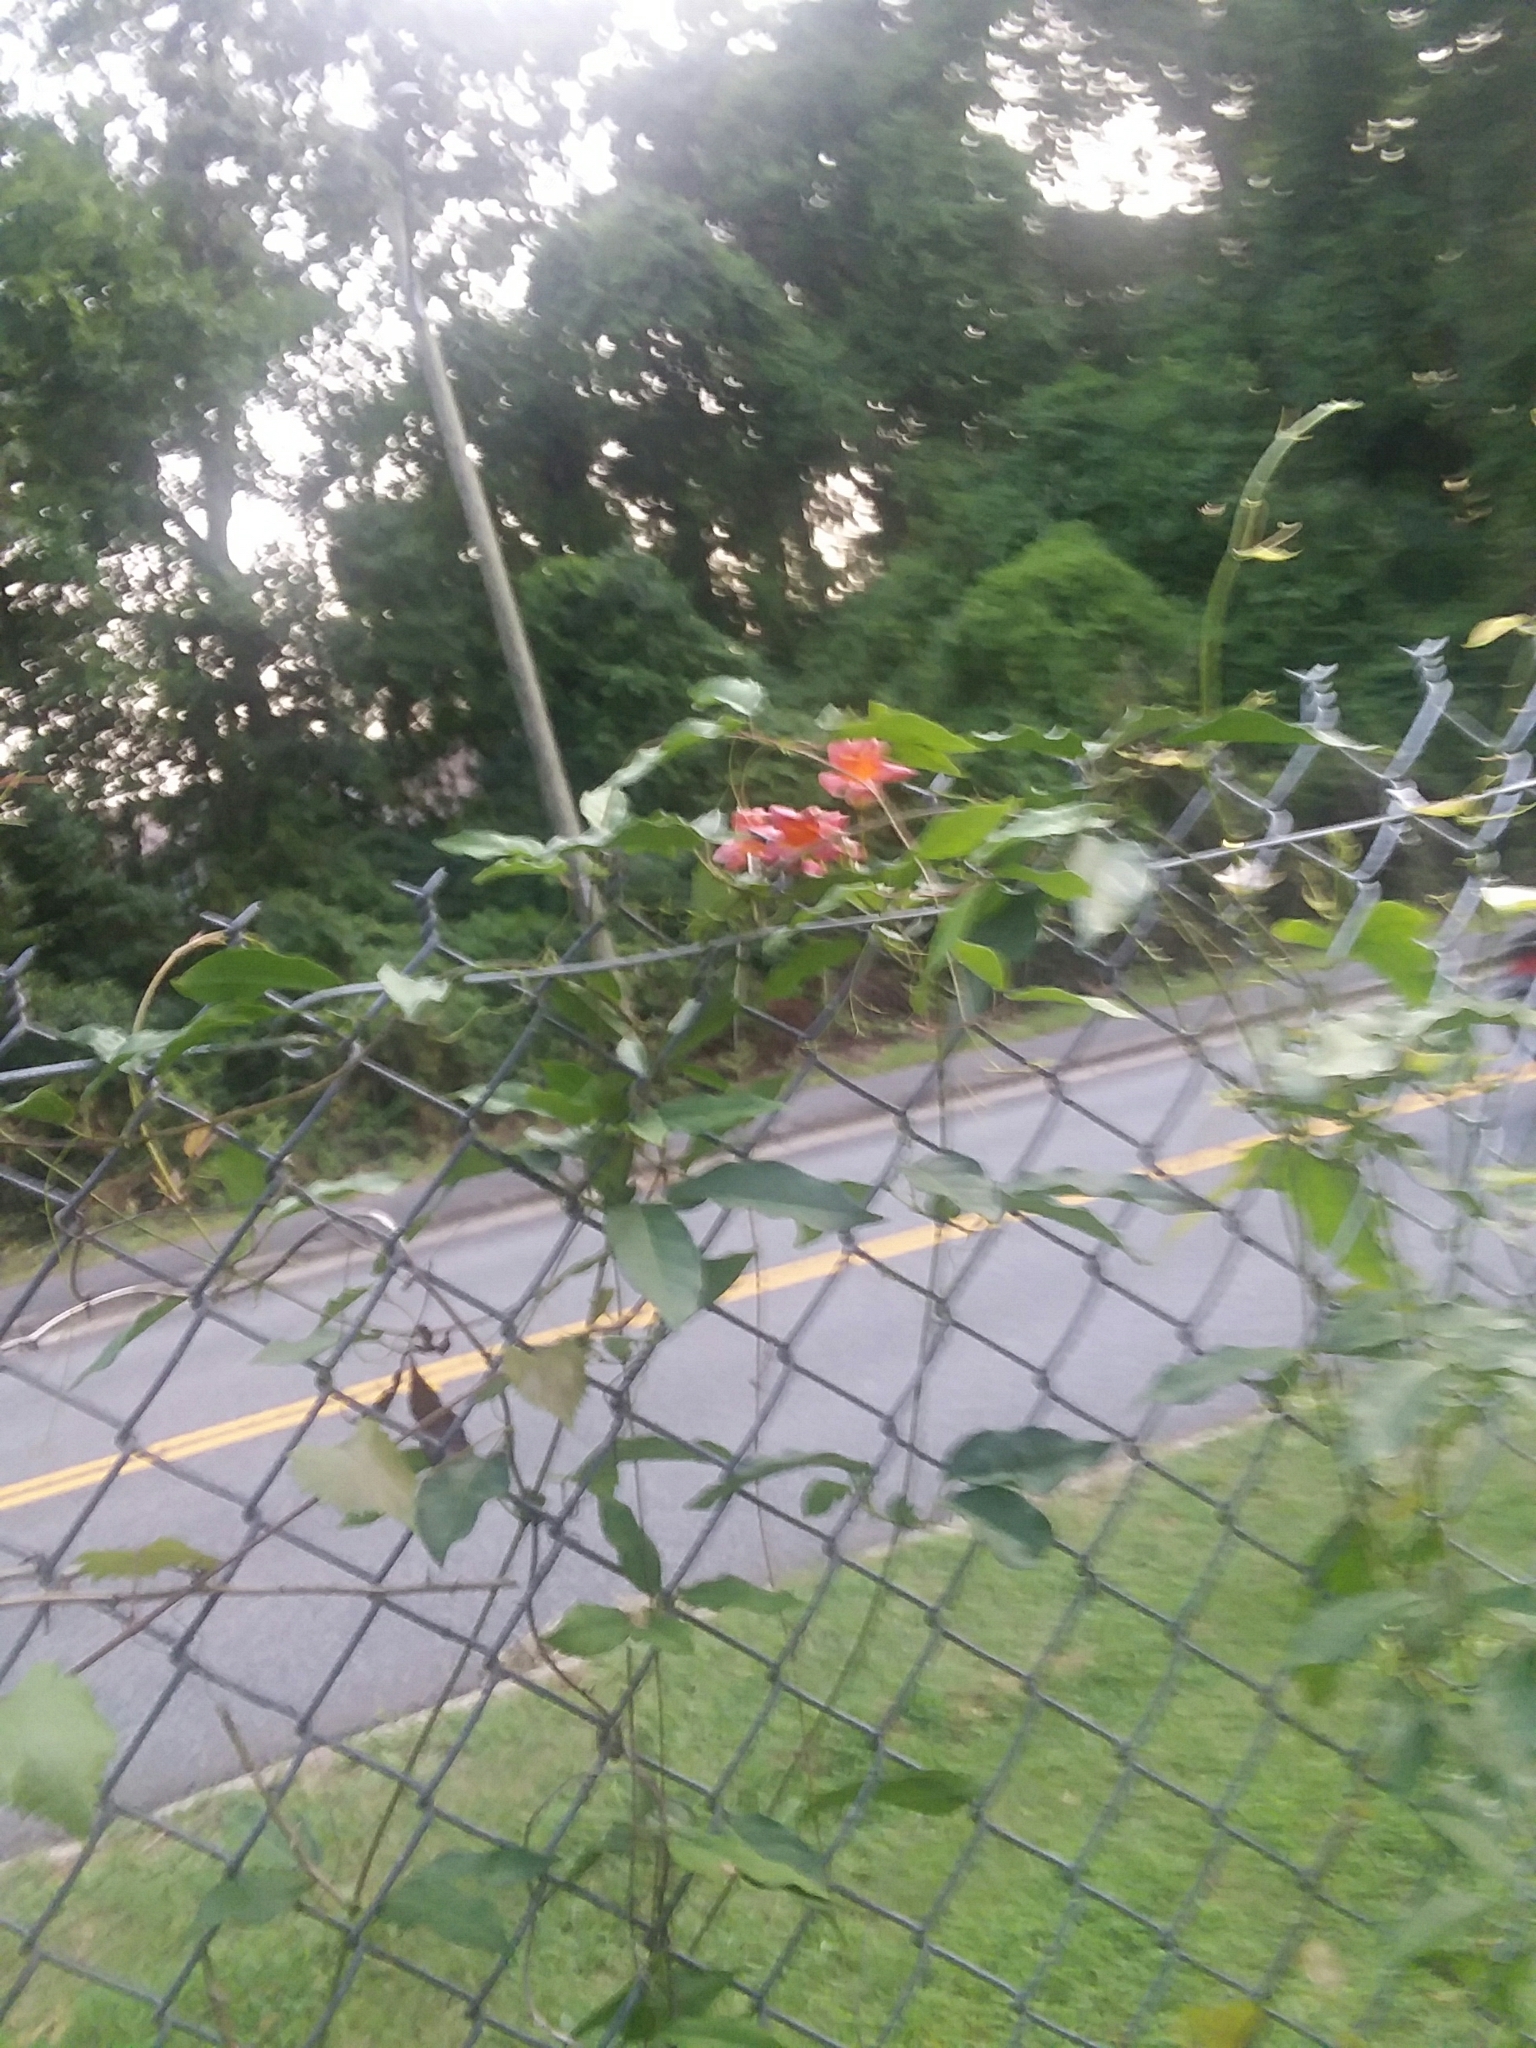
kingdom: Plantae
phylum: Tracheophyta
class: Magnoliopsida
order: Lamiales
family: Bignoniaceae
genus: Bignonia
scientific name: Bignonia capreolata
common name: Crossvine
